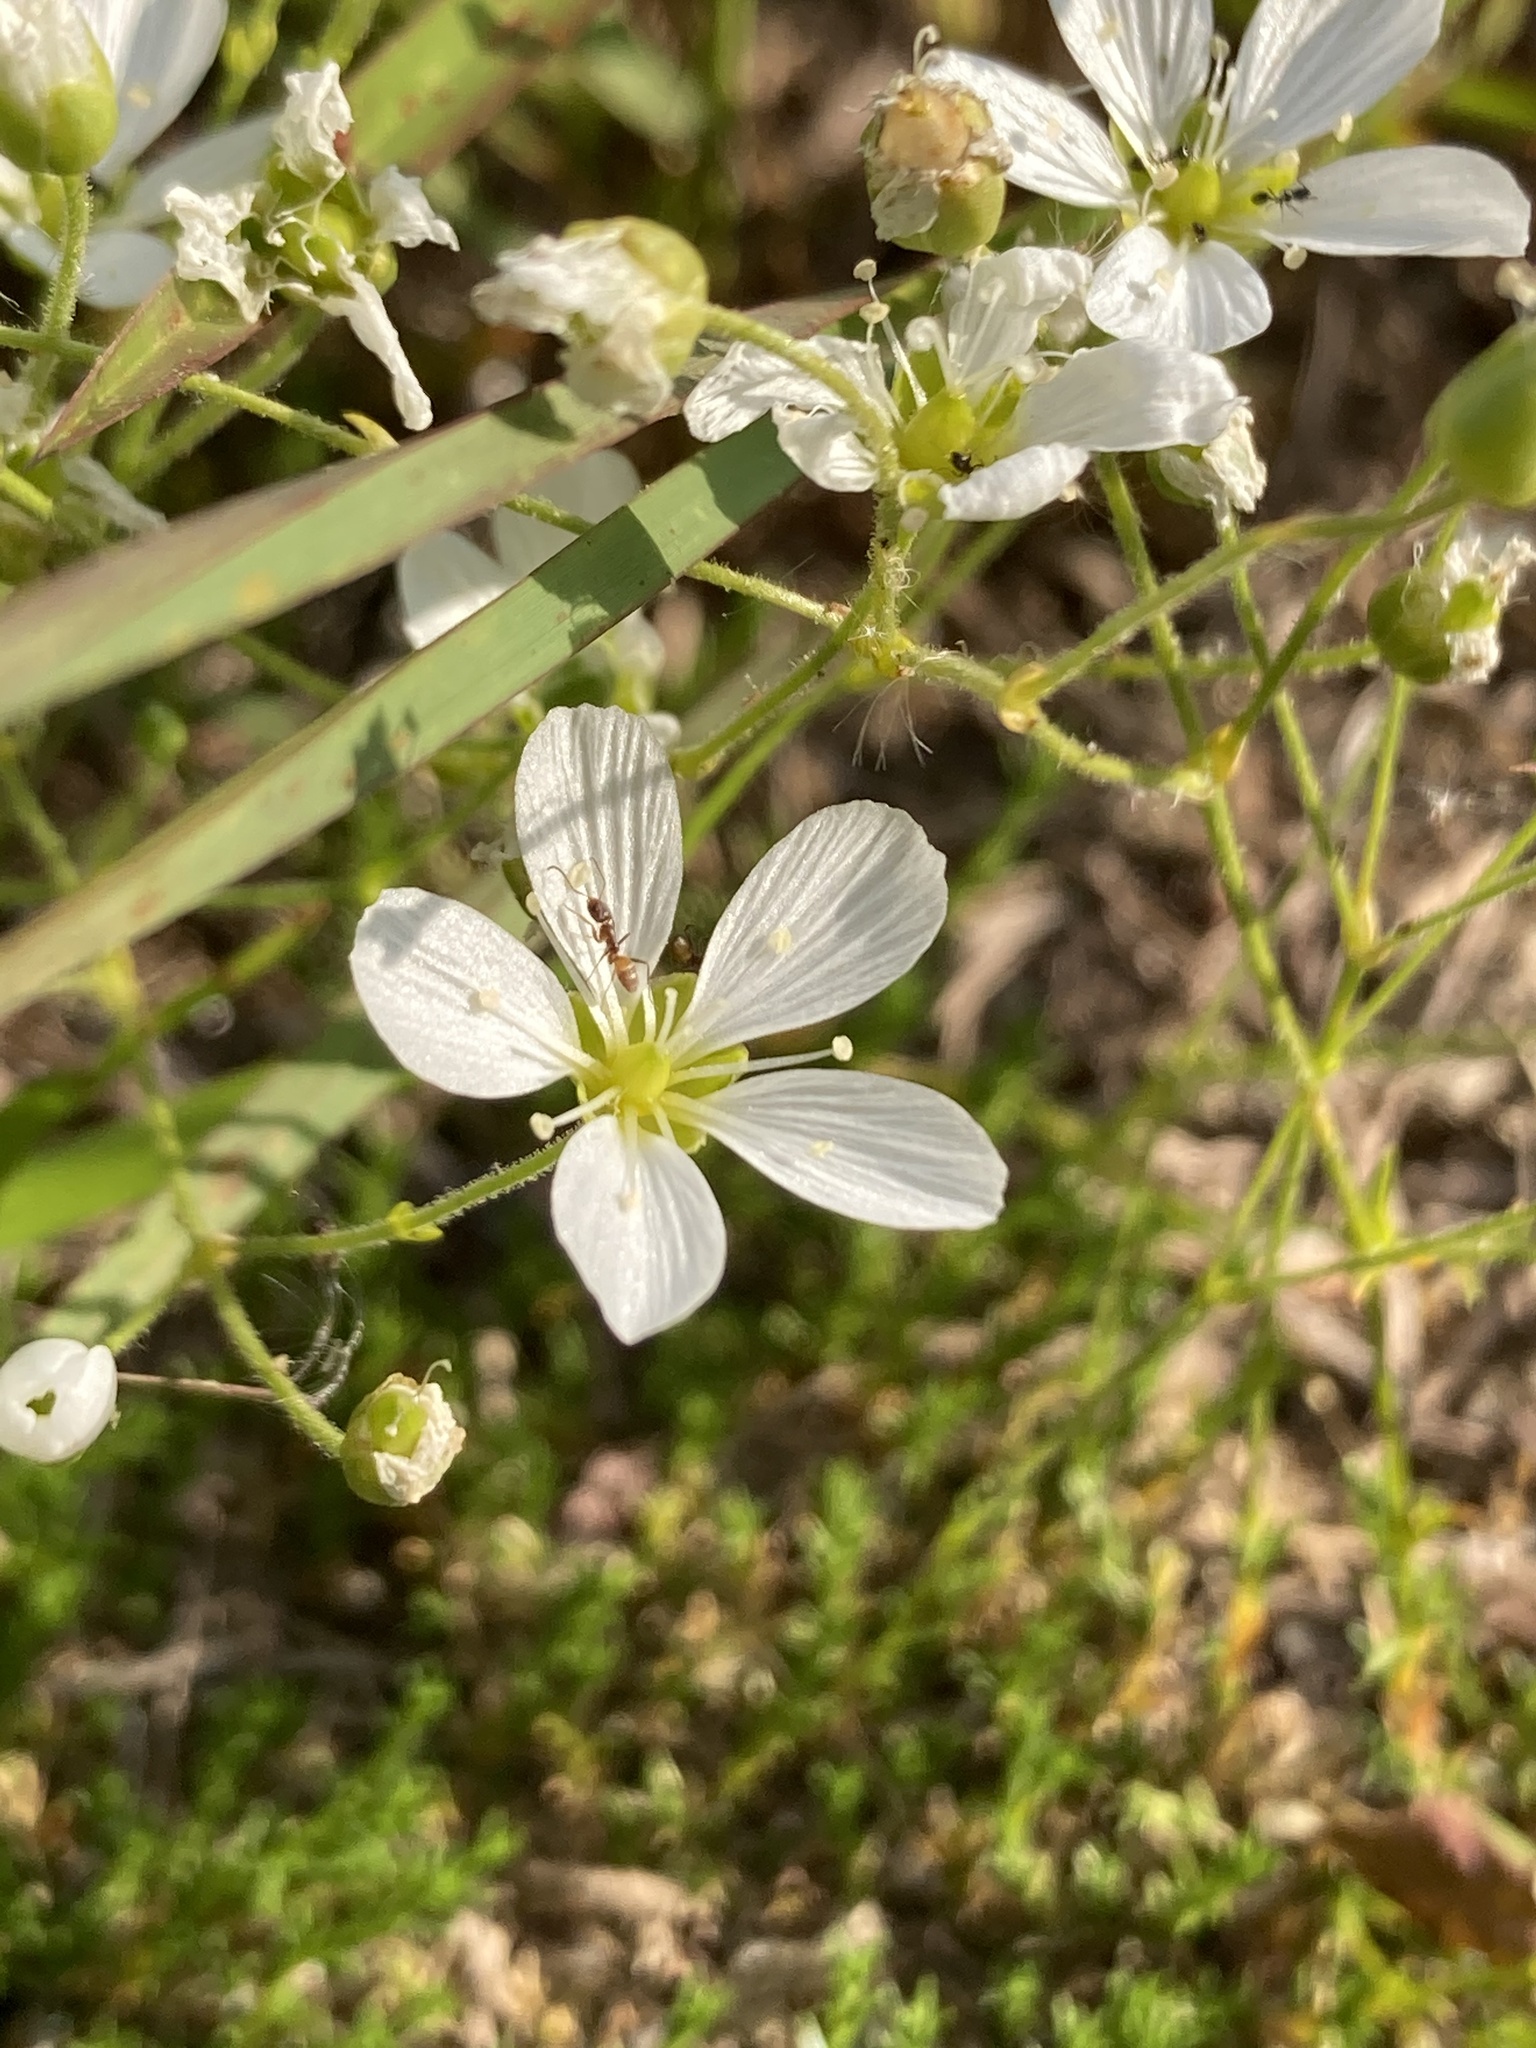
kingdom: Plantae
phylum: Tracheophyta
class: Magnoliopsida
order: Caryophyllales
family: Caryophyllaceae
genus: Geocarpon
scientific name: Geocarpon carolinianum
